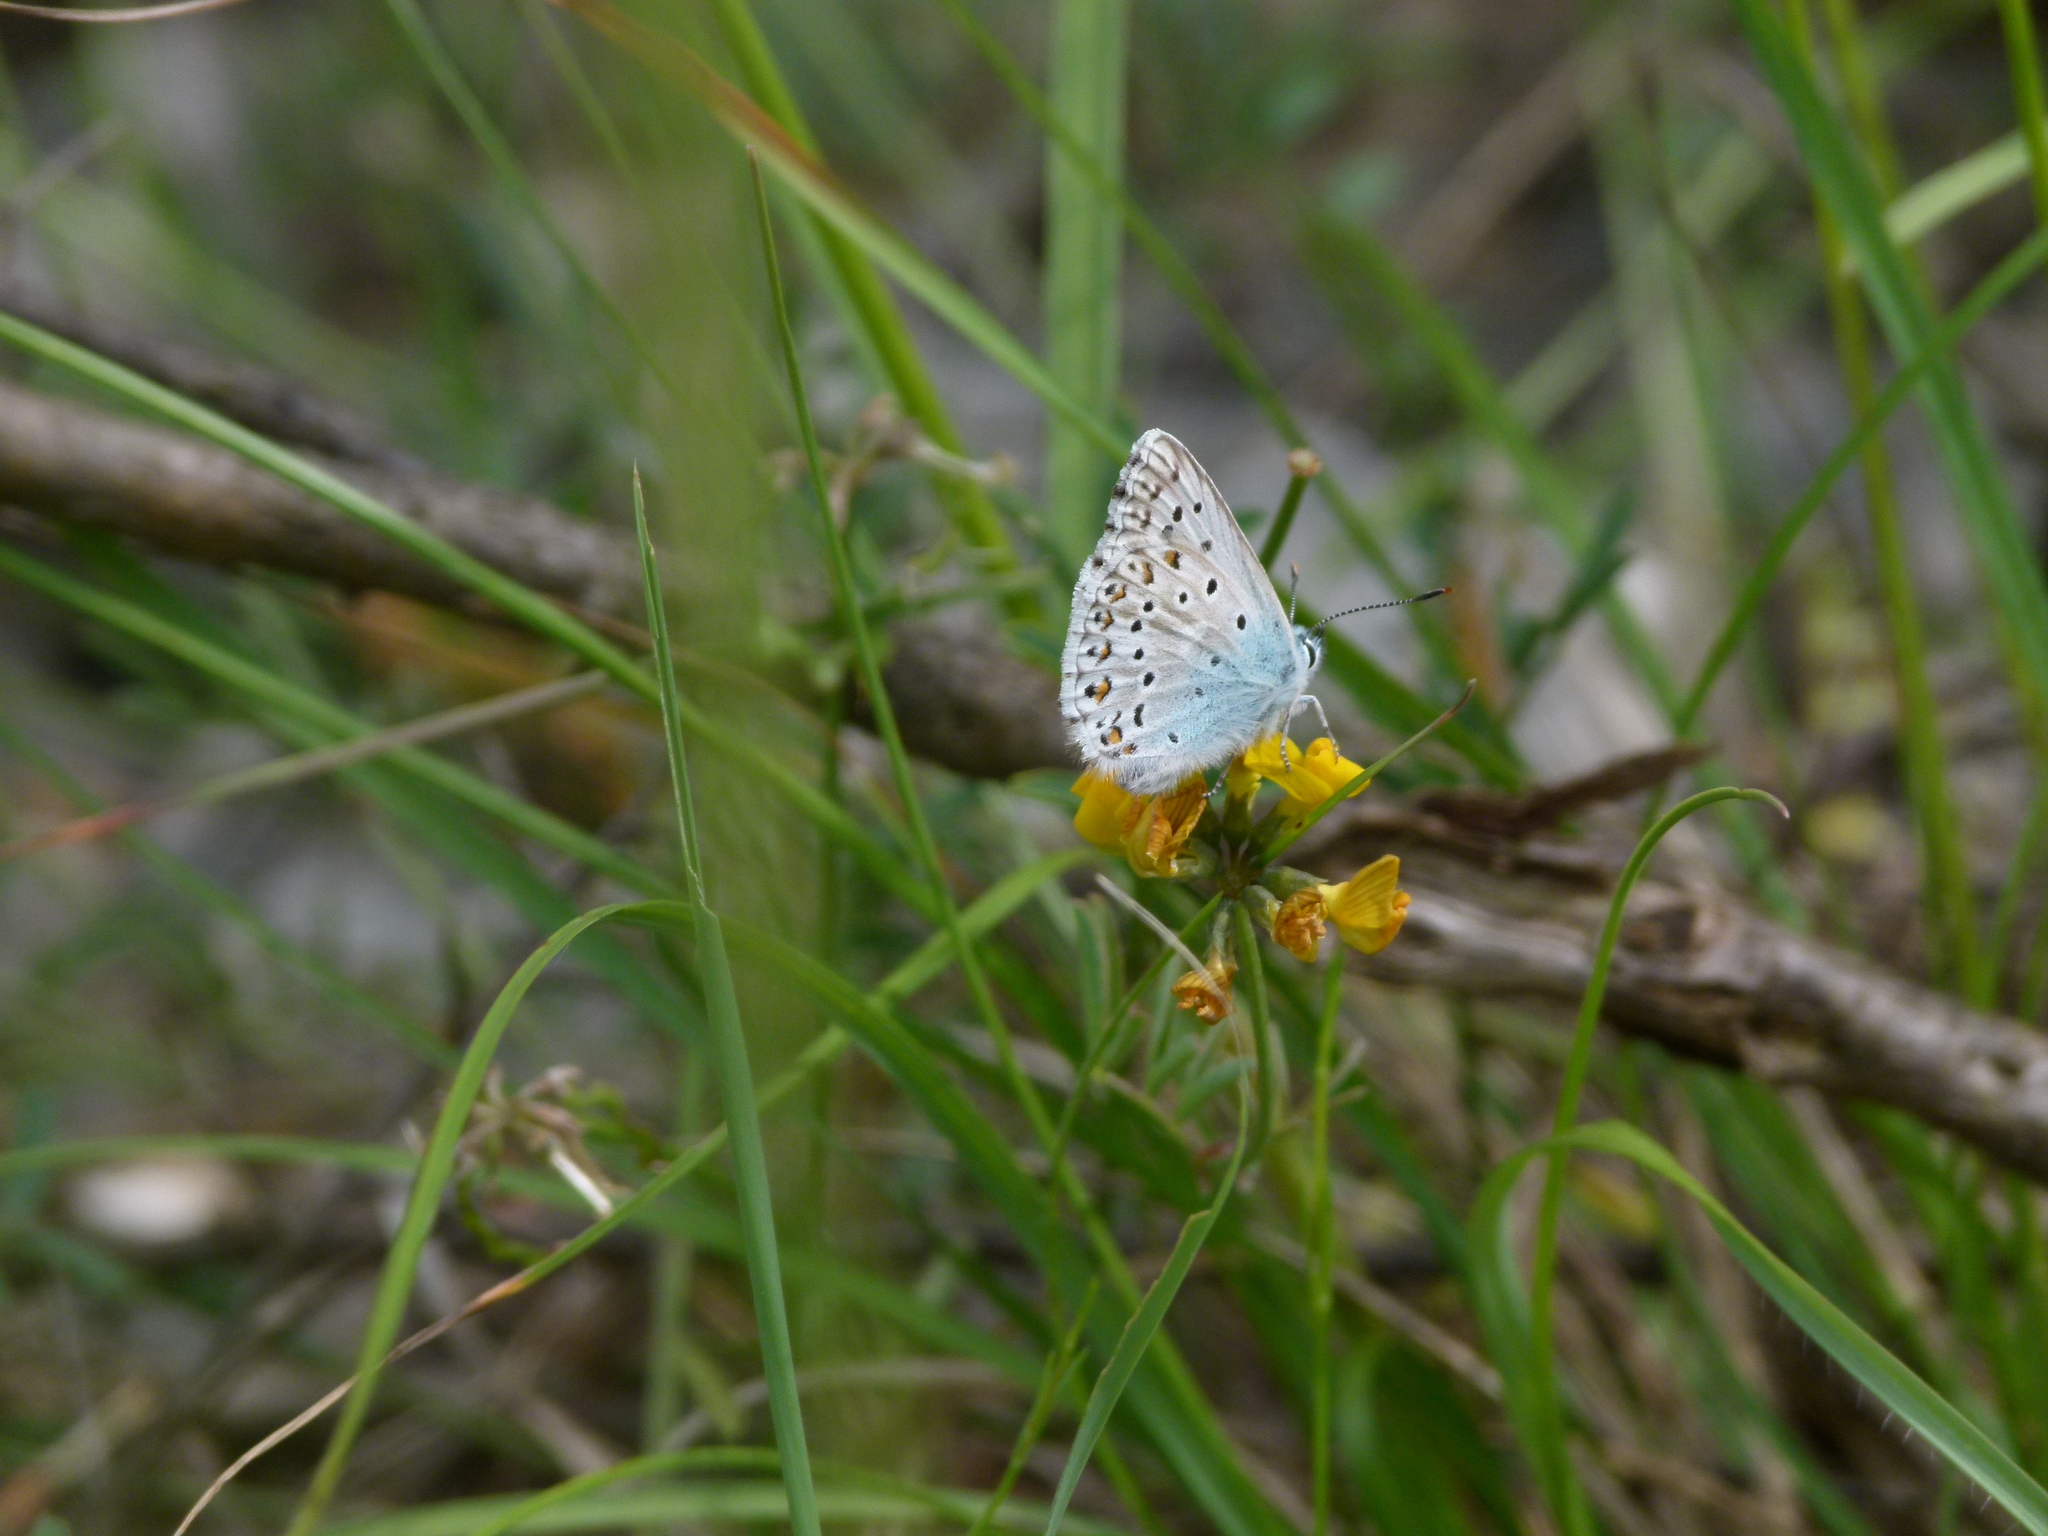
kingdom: Animalia
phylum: Arthropoda
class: Insecta
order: Lepidoptera
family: Lycaenidae
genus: Lysandra
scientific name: Lysandra hispana
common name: Provence chalkhill blue
